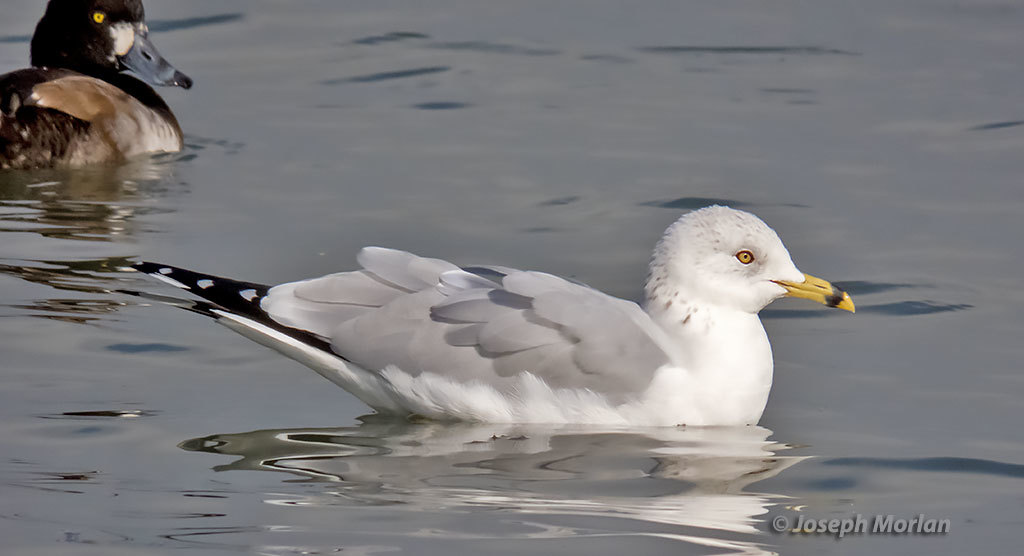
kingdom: Animalia
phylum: Chordata
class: Aves
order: Charadriiformes
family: Laridae
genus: Larus
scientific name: Larus delawarensis
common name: Ring-billed gull
